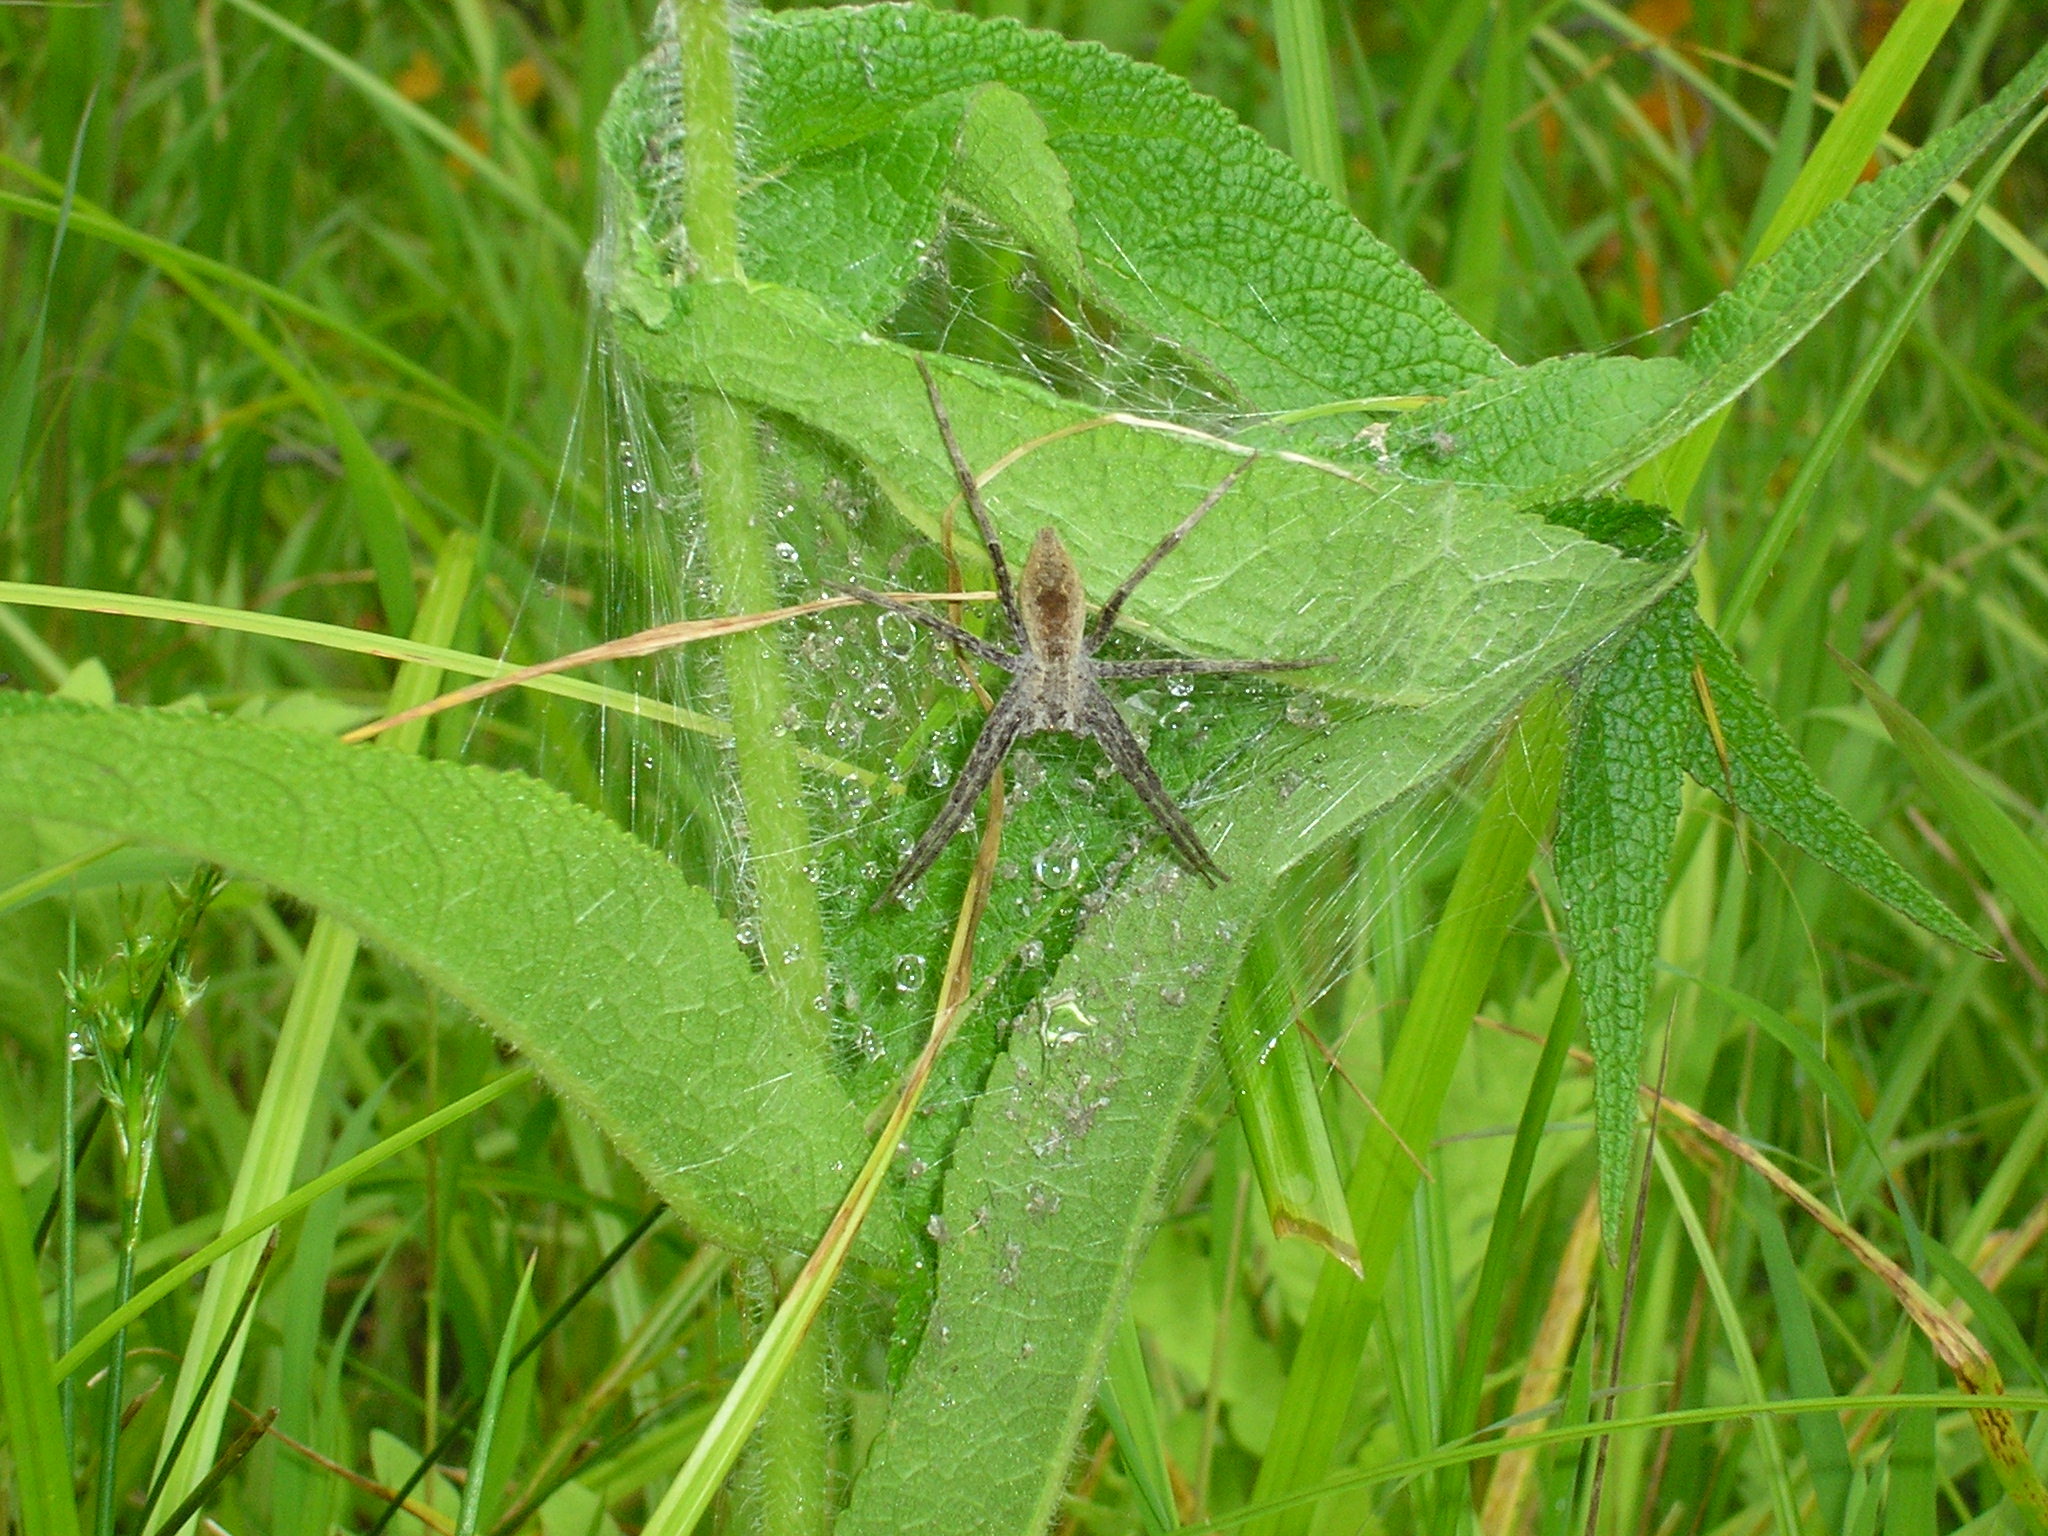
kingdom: Animalia
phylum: Arthropoda
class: Arachnida
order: Araneae
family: Pisauridae
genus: Pisaurina
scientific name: Pisaurina mira
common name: American nursery web spider
